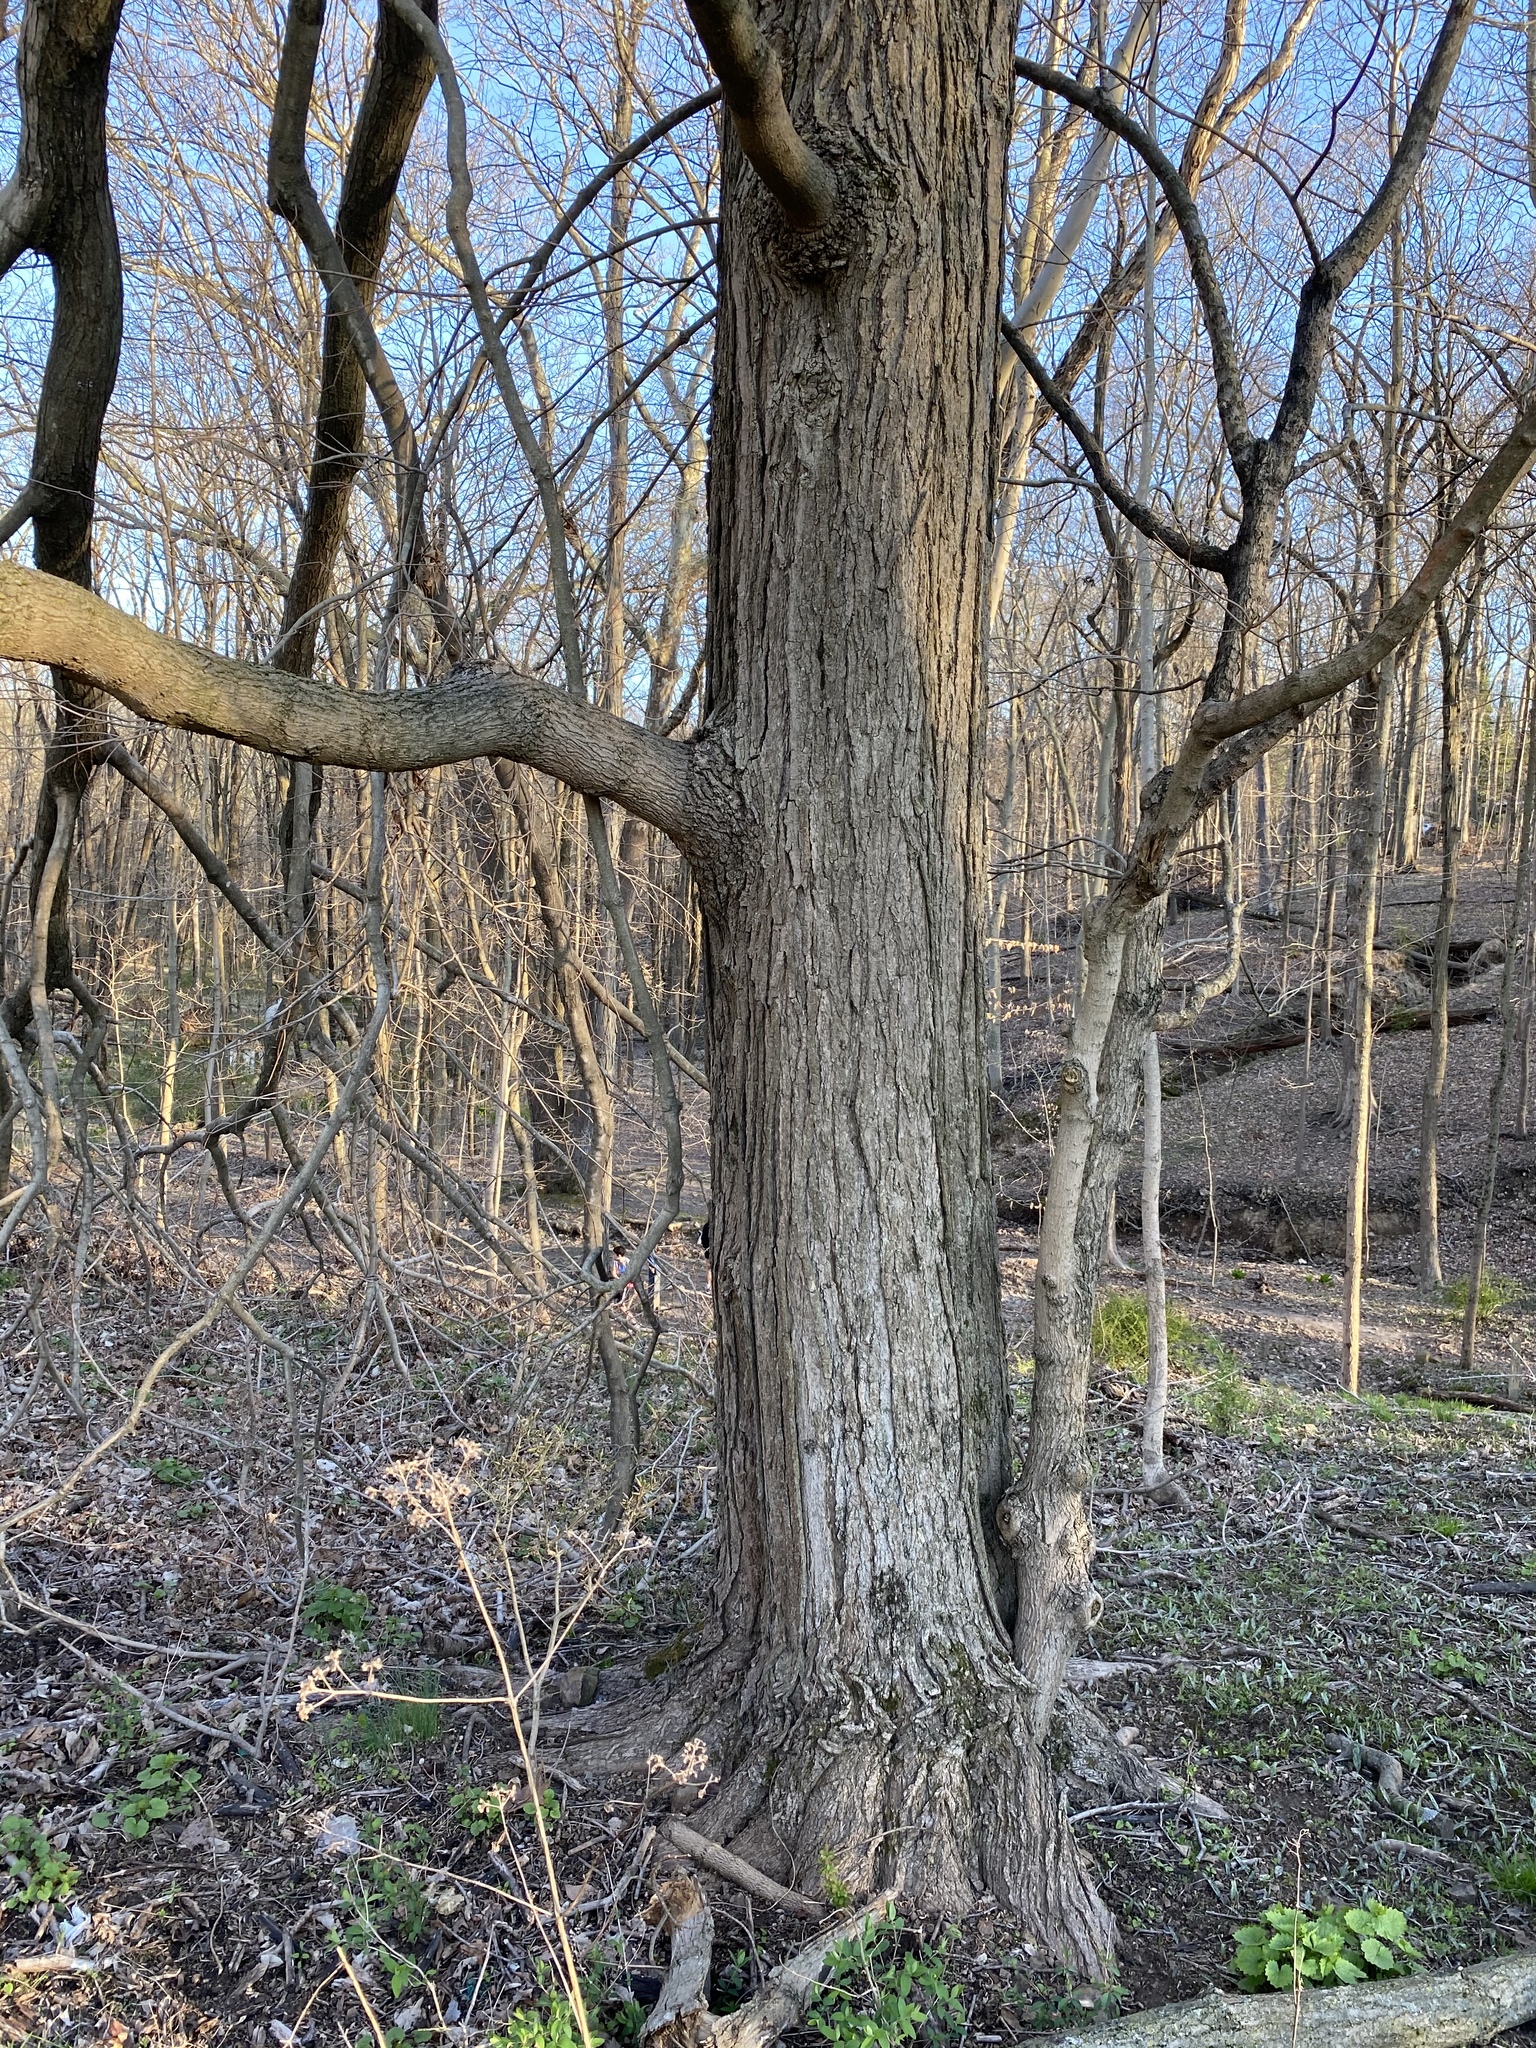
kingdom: Plantae
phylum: Tracheophyta
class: Magnoliopsida
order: Sapindales
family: Sapindaceae
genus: Acer
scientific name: Acer saccharum
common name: Sugar maple
